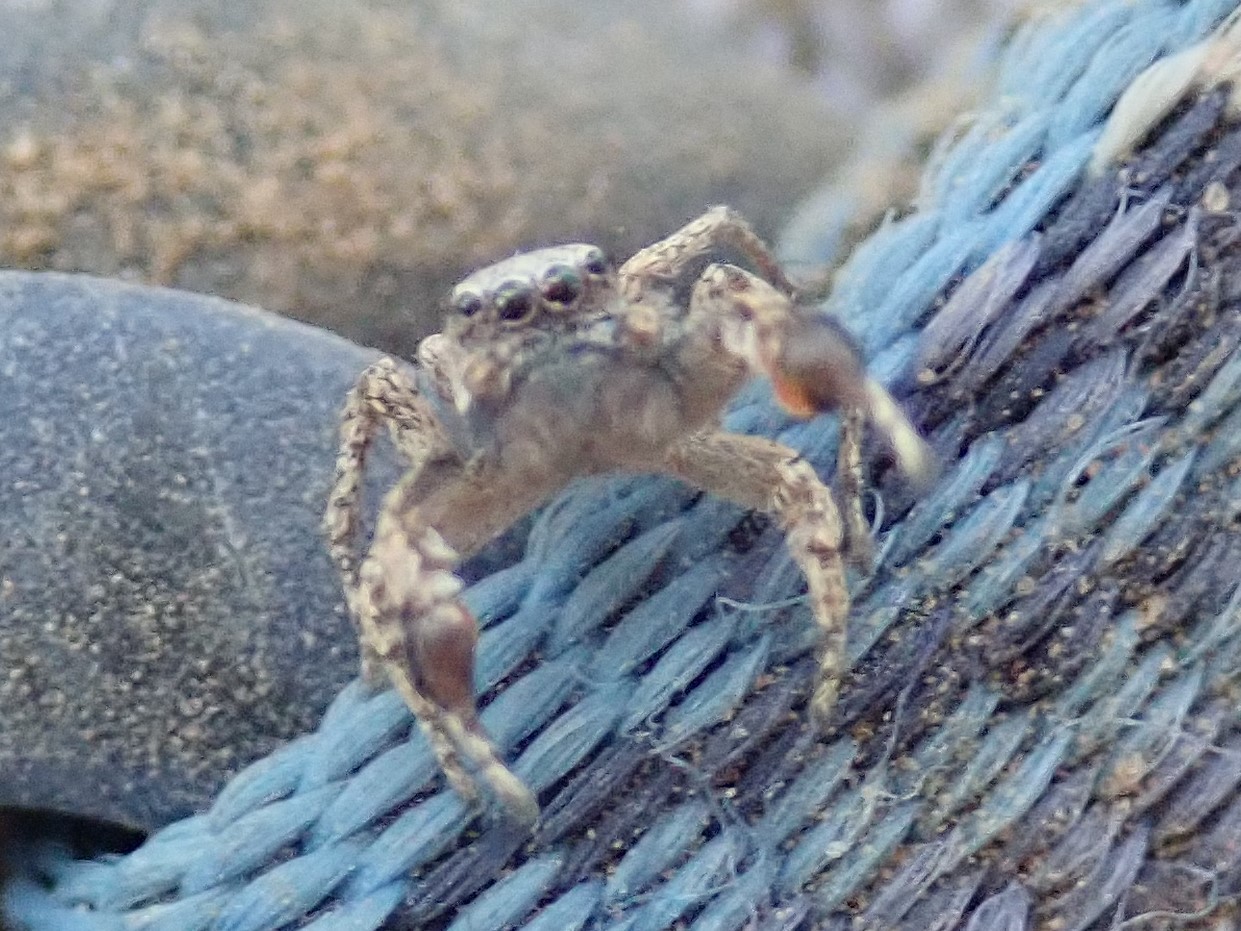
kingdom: Animalia
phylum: Arthropoda
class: Arachnida
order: Araneae
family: Salticidae
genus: Habronattus
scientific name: Habronattus oregonensis
